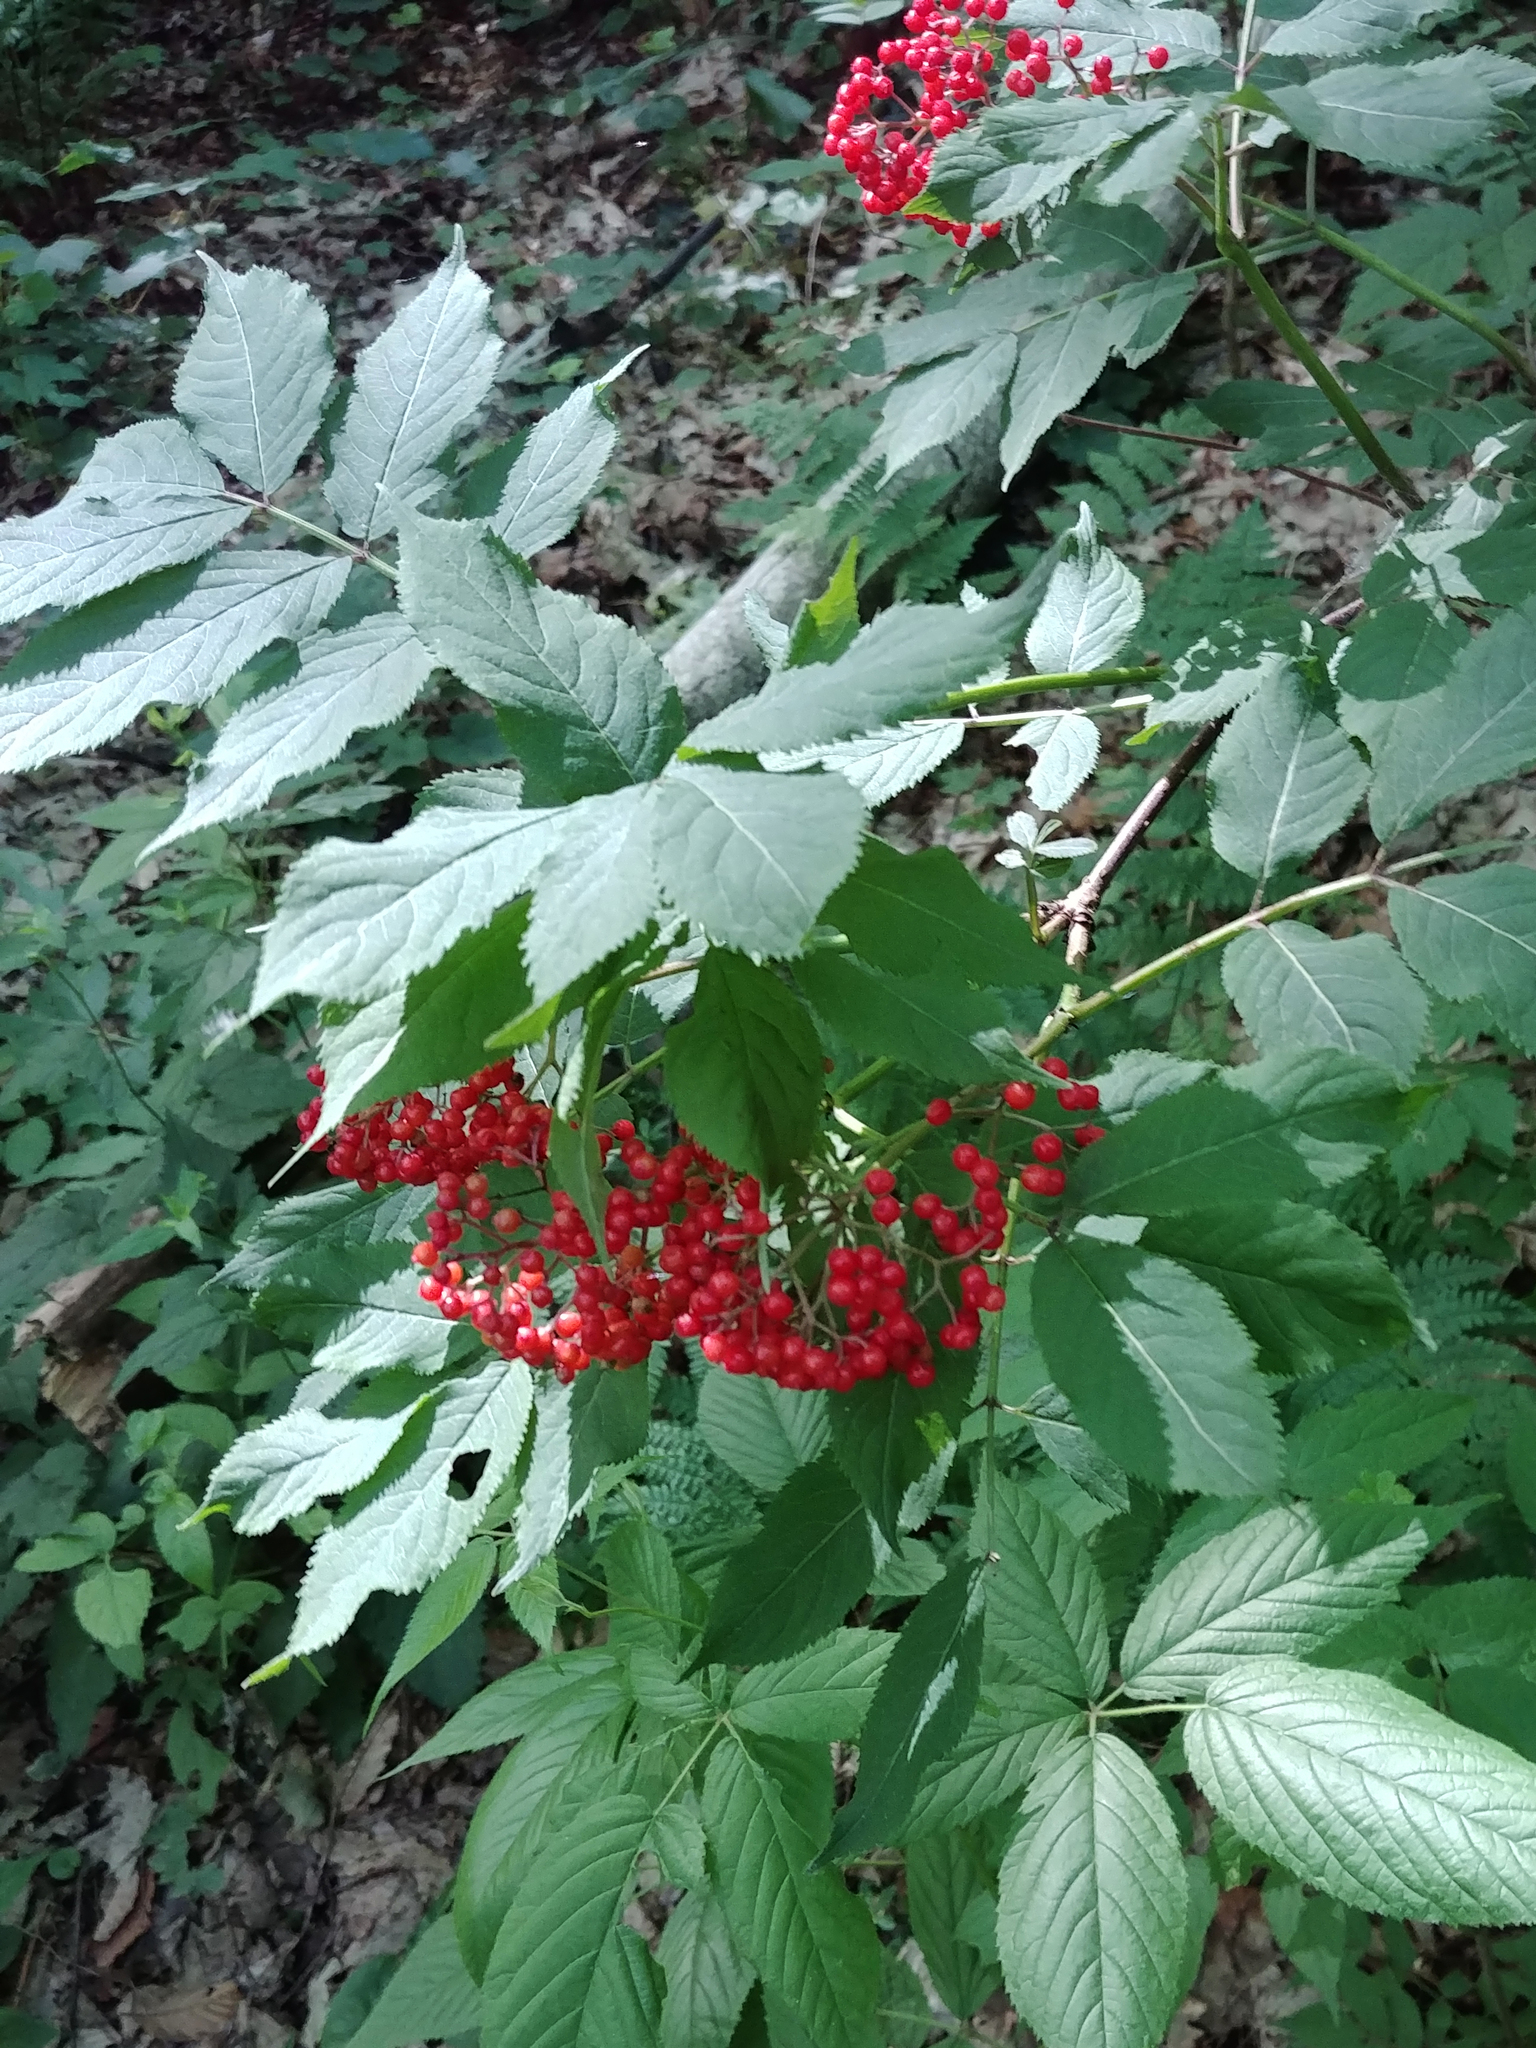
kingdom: Plantae
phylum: Tracheophyta
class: Magnoliopsida
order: Dipsacales
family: Viburnaceae
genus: Sambucus
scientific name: Sambucus racemosa
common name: Red-berried elder
